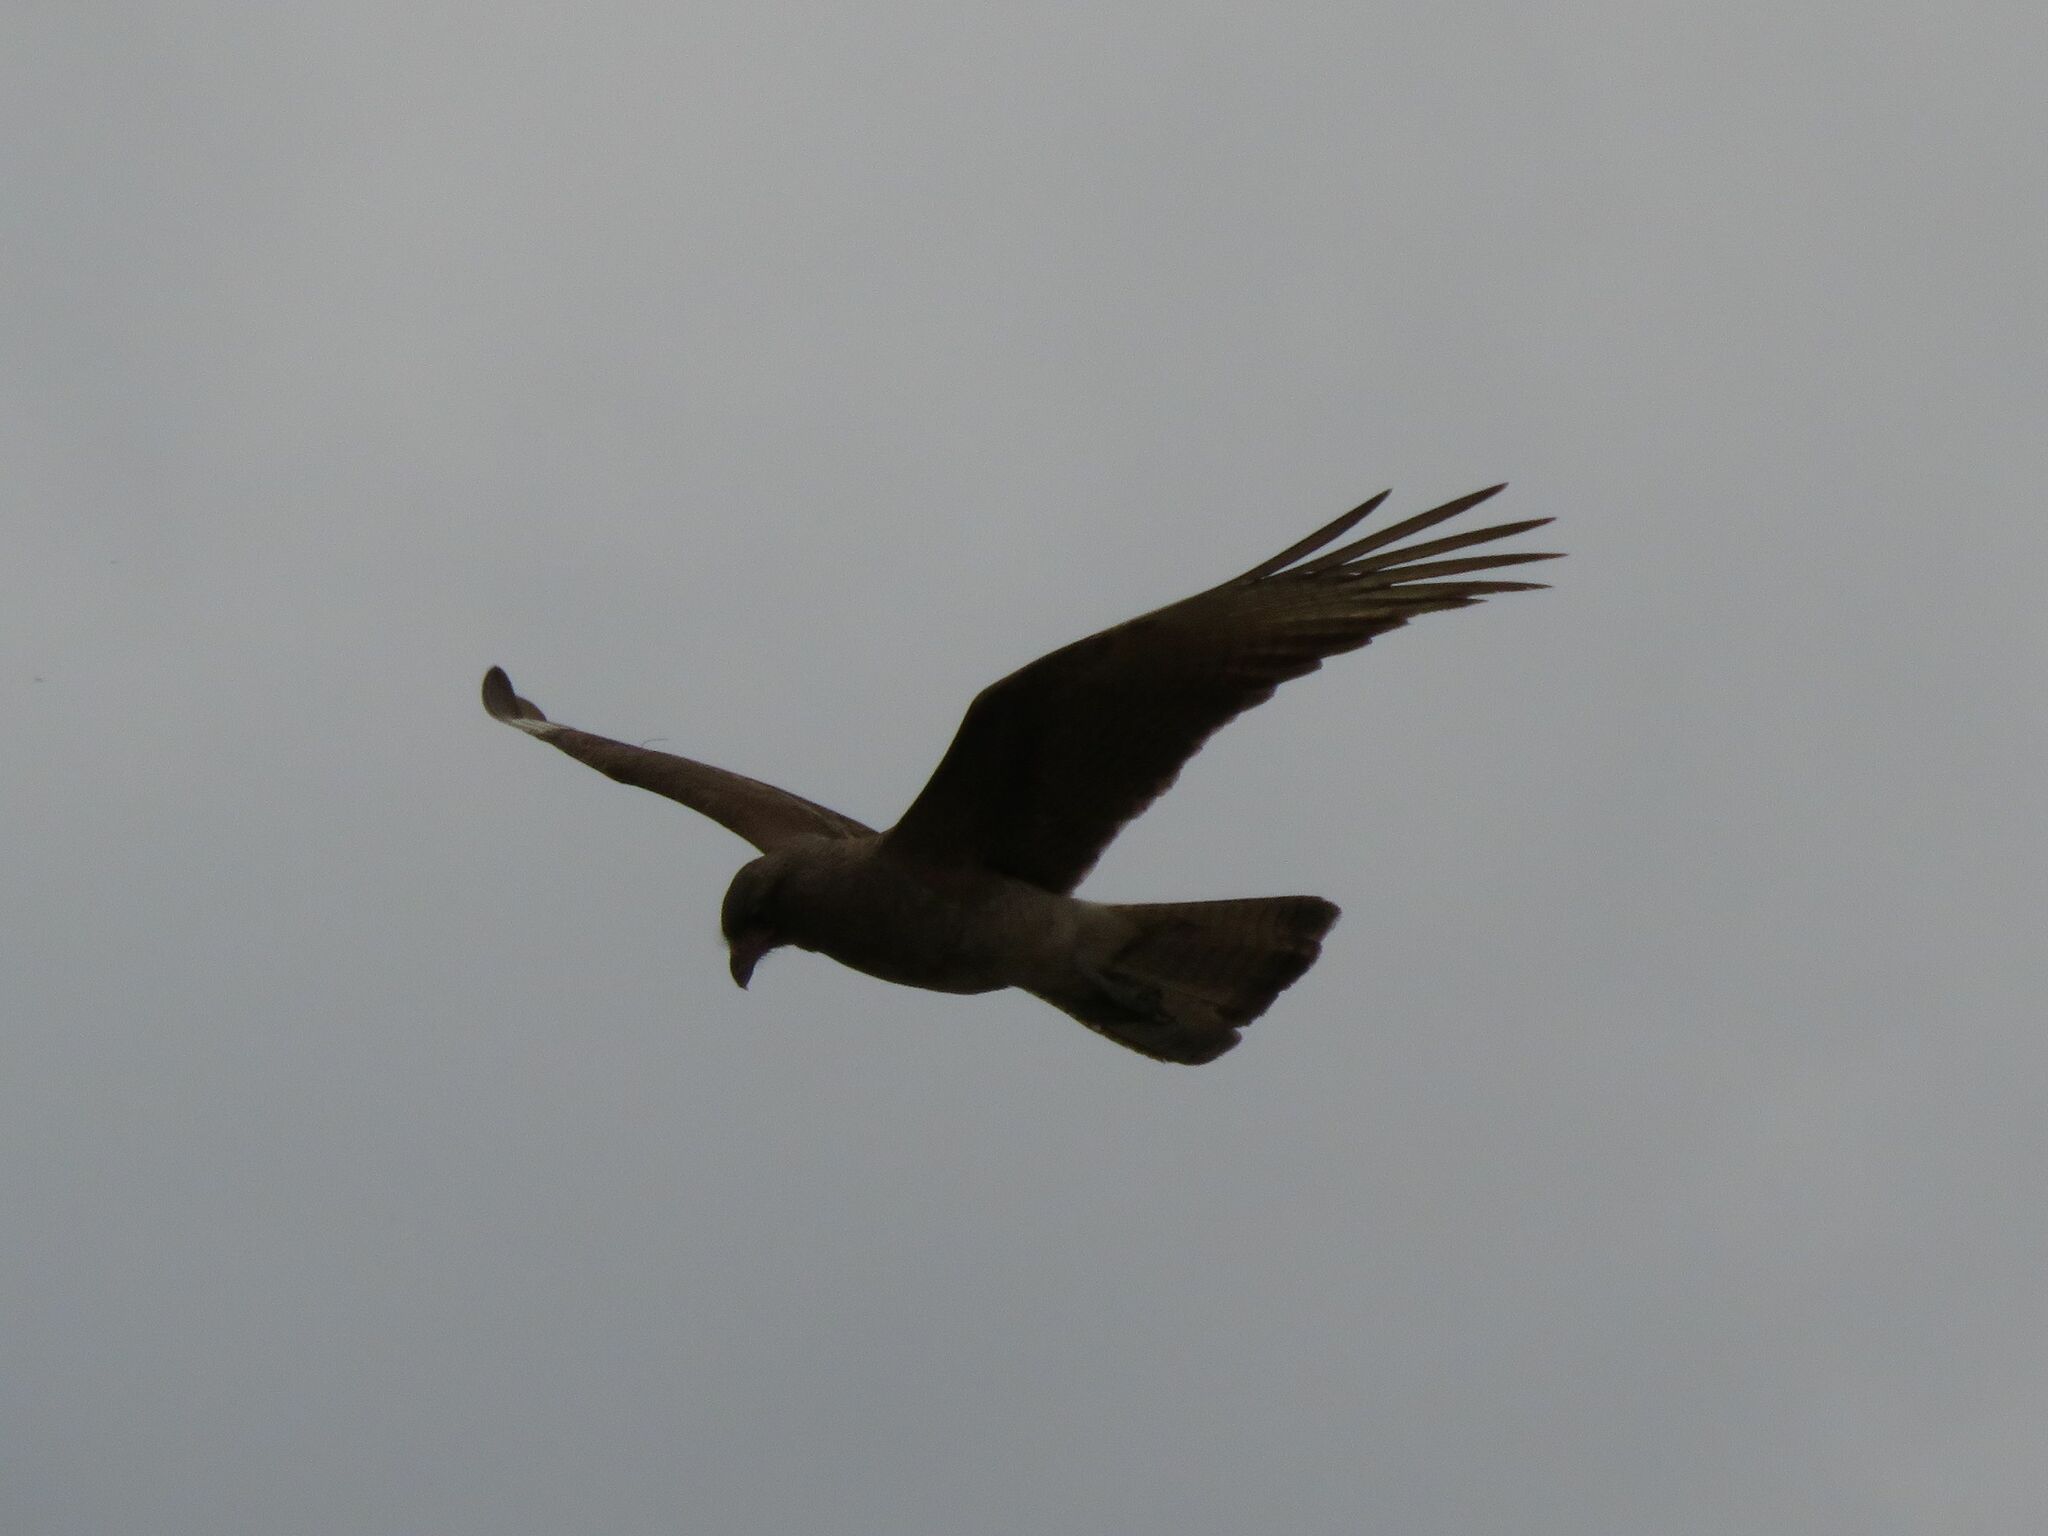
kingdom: Animalia
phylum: Chordata
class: Aves
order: Falconiformes
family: Falconidae
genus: Daptrius
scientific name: Daptrius
